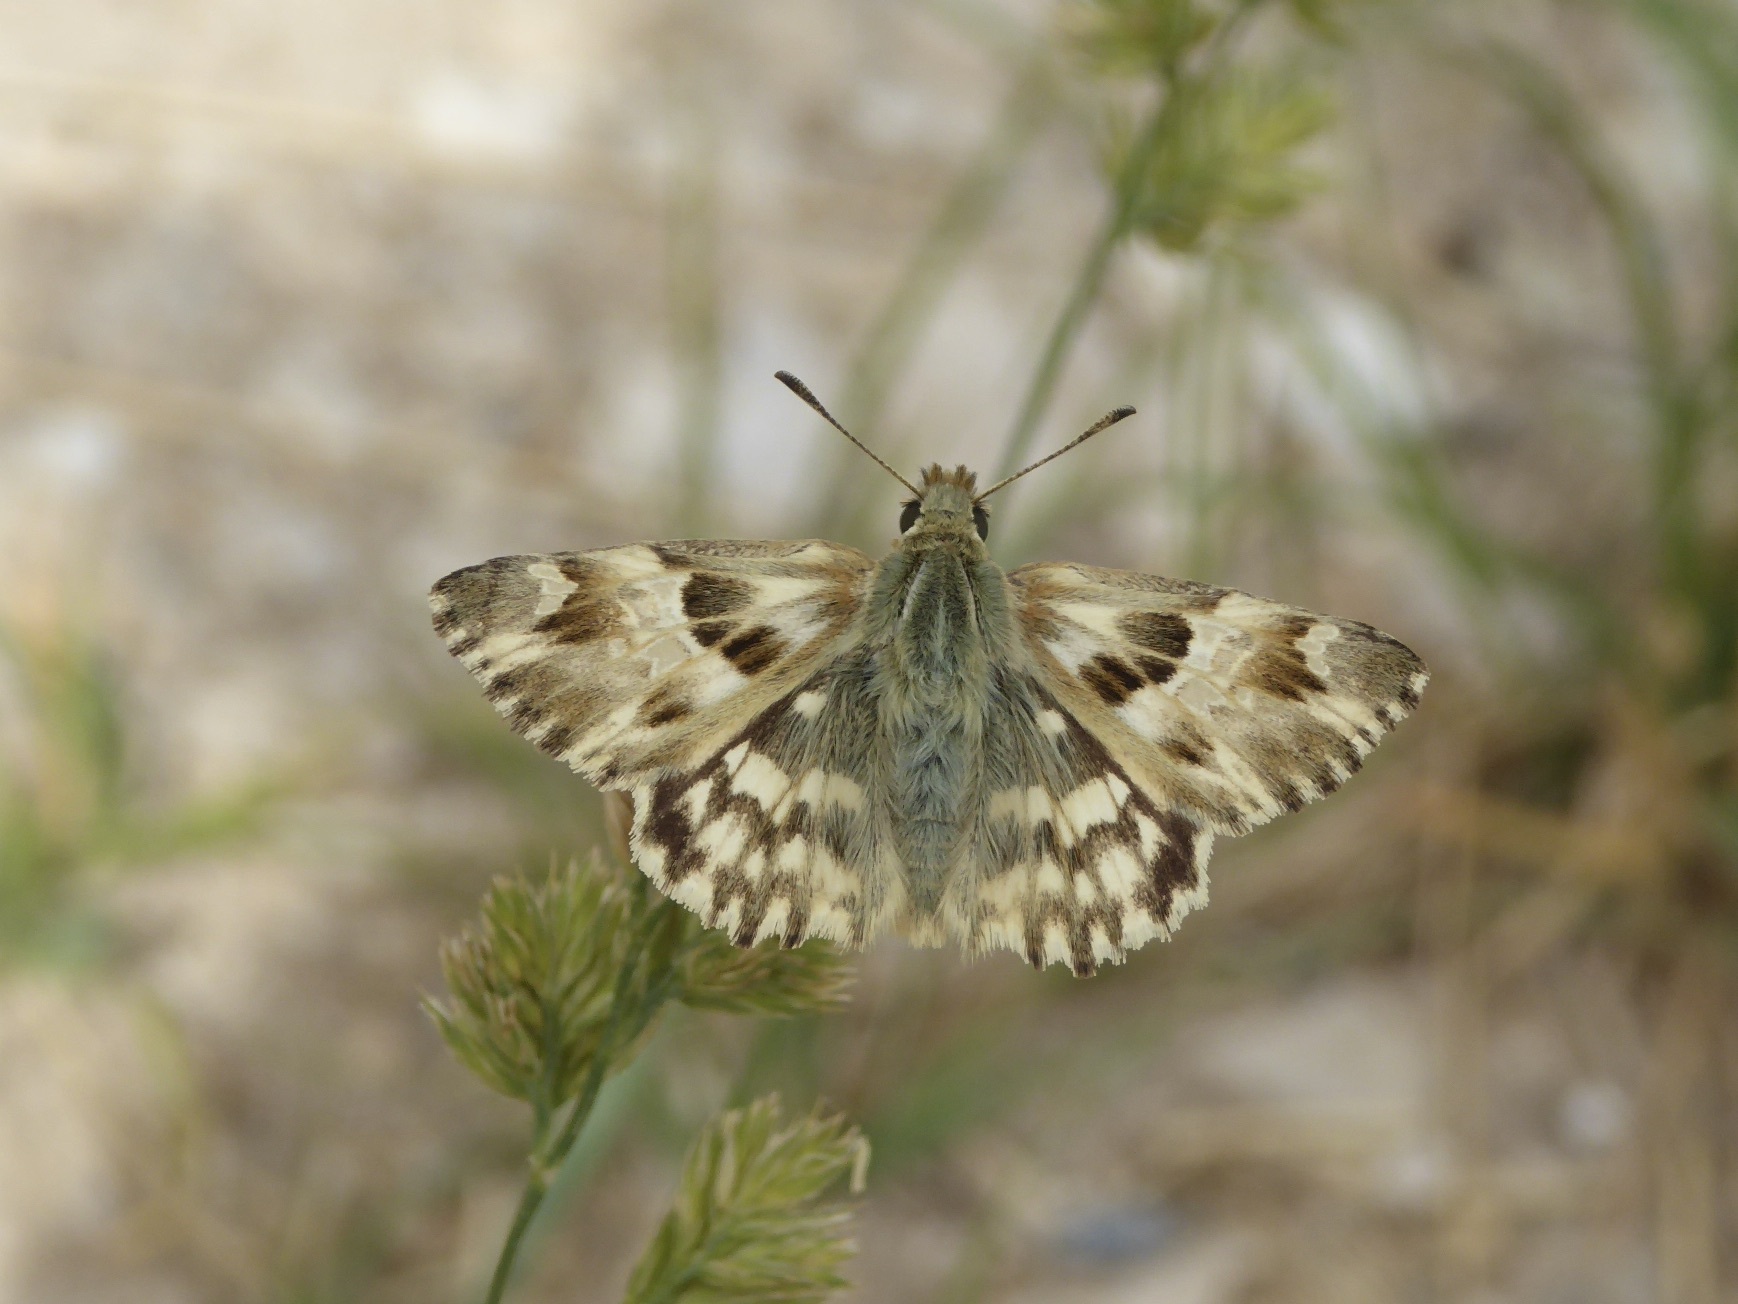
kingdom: Animalia
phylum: Arthropoda
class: Insecta
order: Lepidoptera
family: Hesperiidae
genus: Carcharodus
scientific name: Carcharodus lavatherae
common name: Marbled skipper
